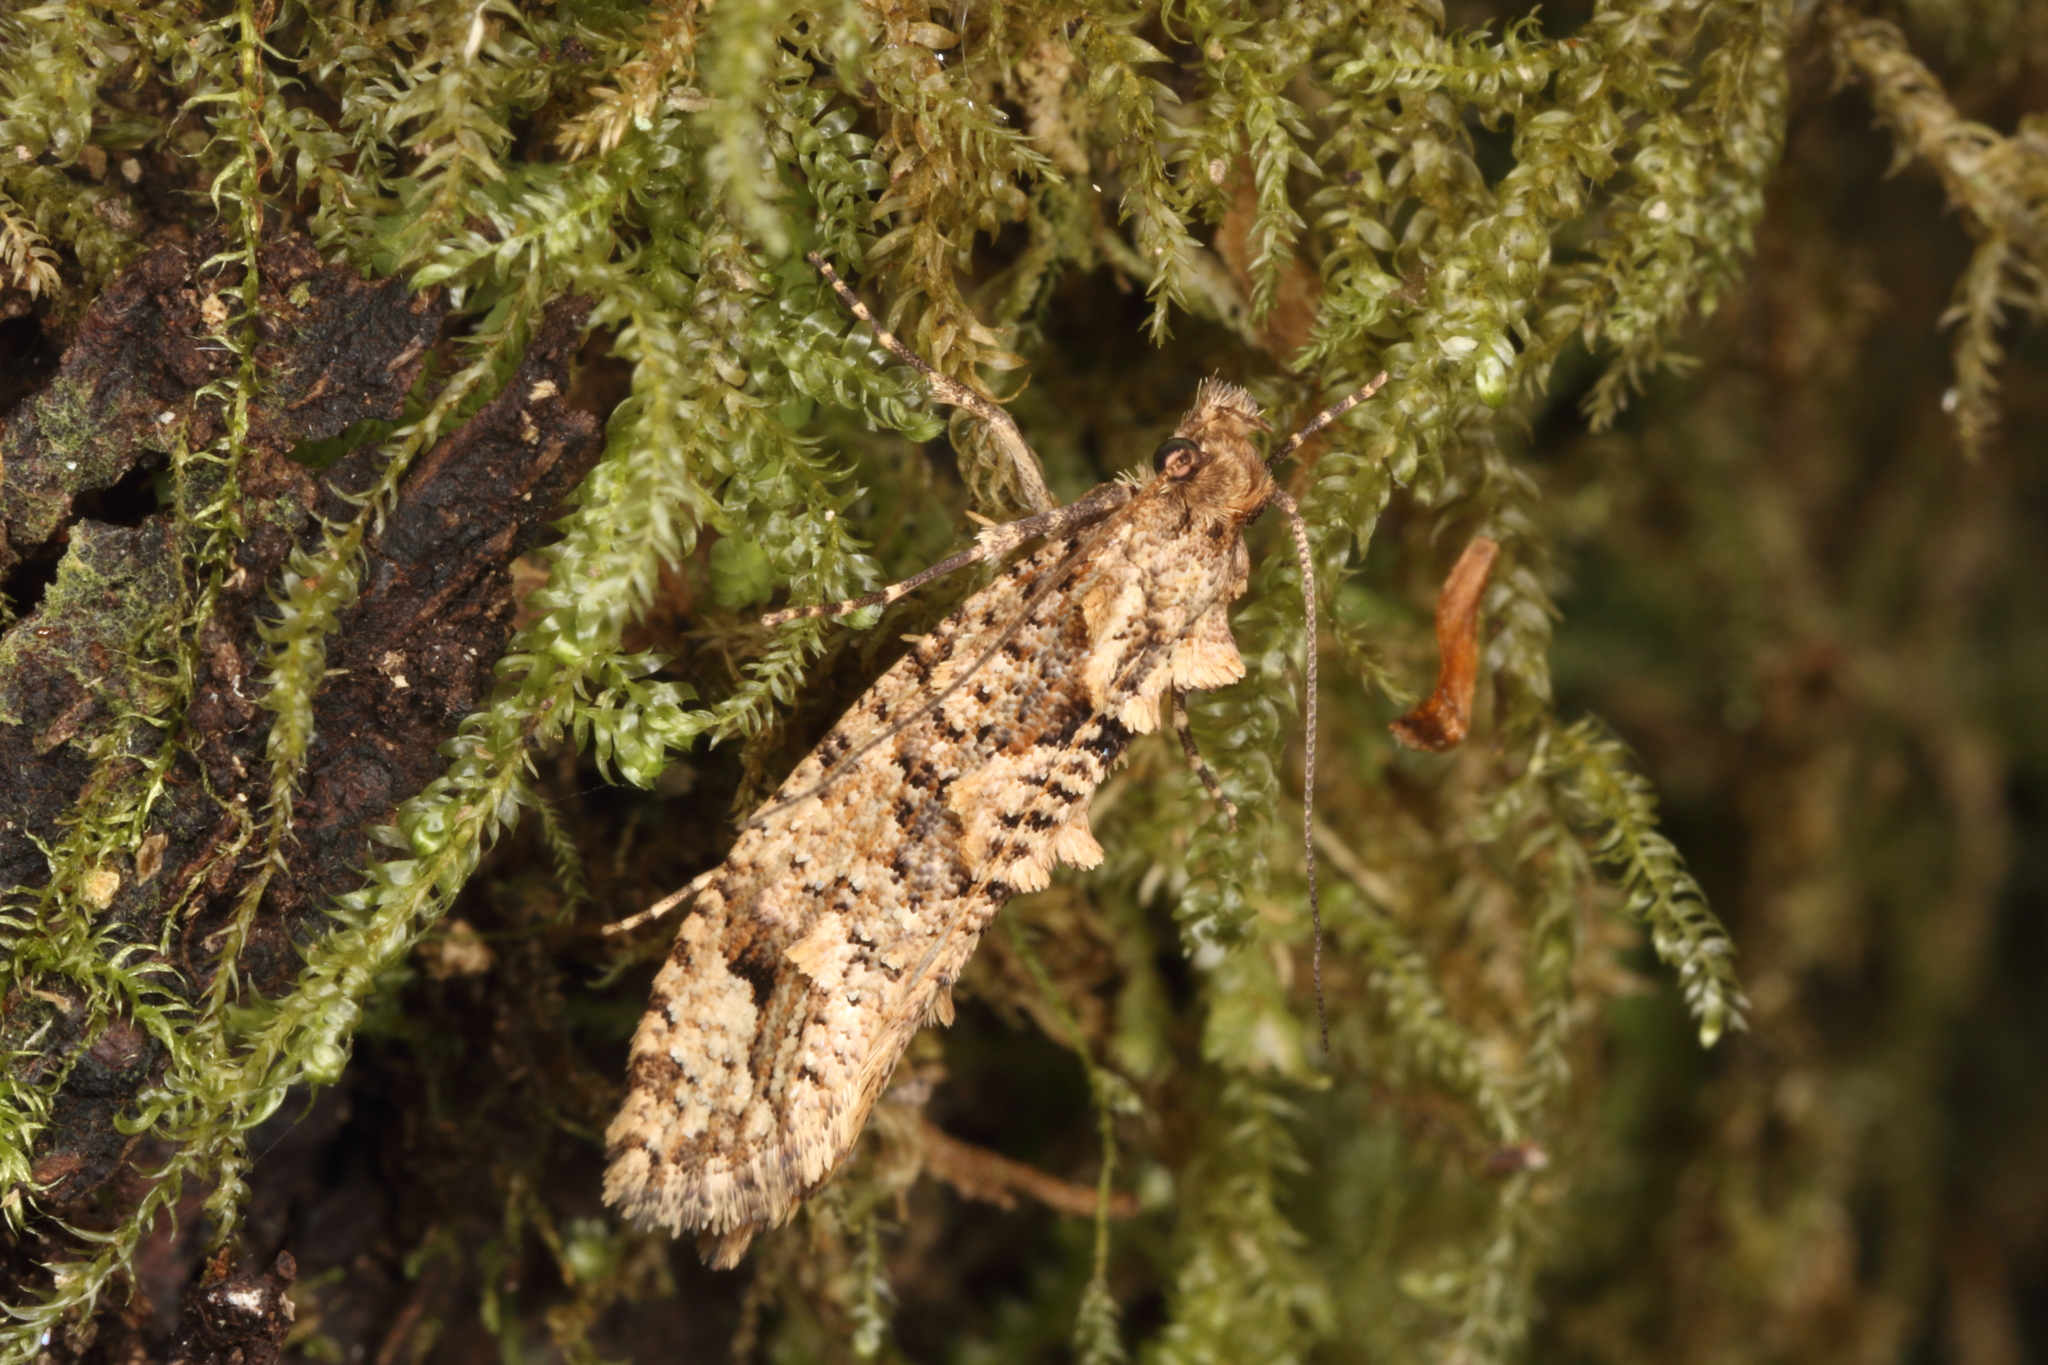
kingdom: Animalia
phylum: Arthropoda
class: Insecta
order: Lepidoptera
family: Tineidae
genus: Lysiphragma
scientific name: Lysiphragma epixyla
